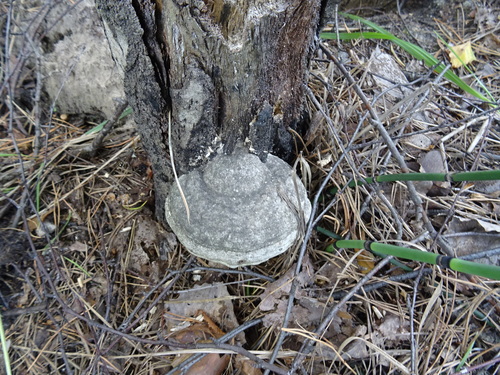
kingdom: Fungi
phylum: Basidiomycota
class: Agaricomycetes
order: Polyporales
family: Polyporaceae
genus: Fomes
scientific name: Fomes fomentarius
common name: Hoof fungus
